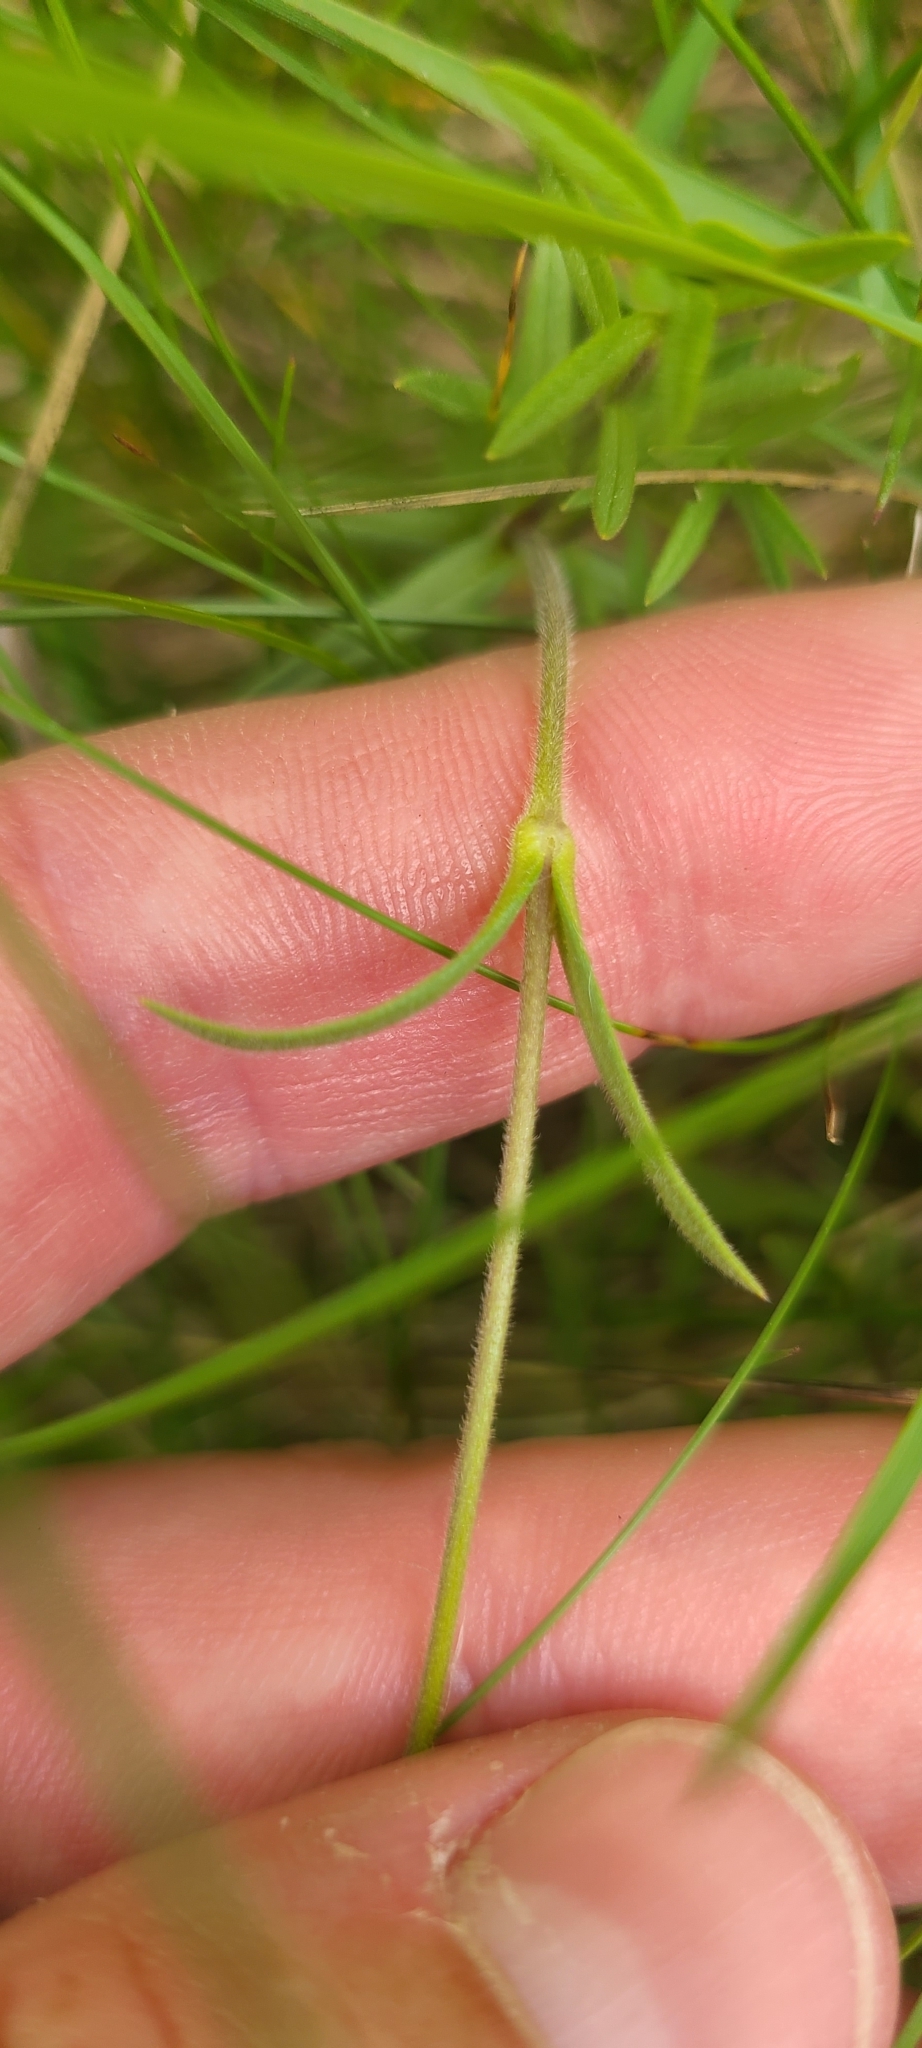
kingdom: Plantae
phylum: Tracheophyta
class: Magnoliopsida
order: Caryophyllales
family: Caryophyllaceae
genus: Cerastium
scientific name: Cerastium arvense
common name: Field mouse-ear
